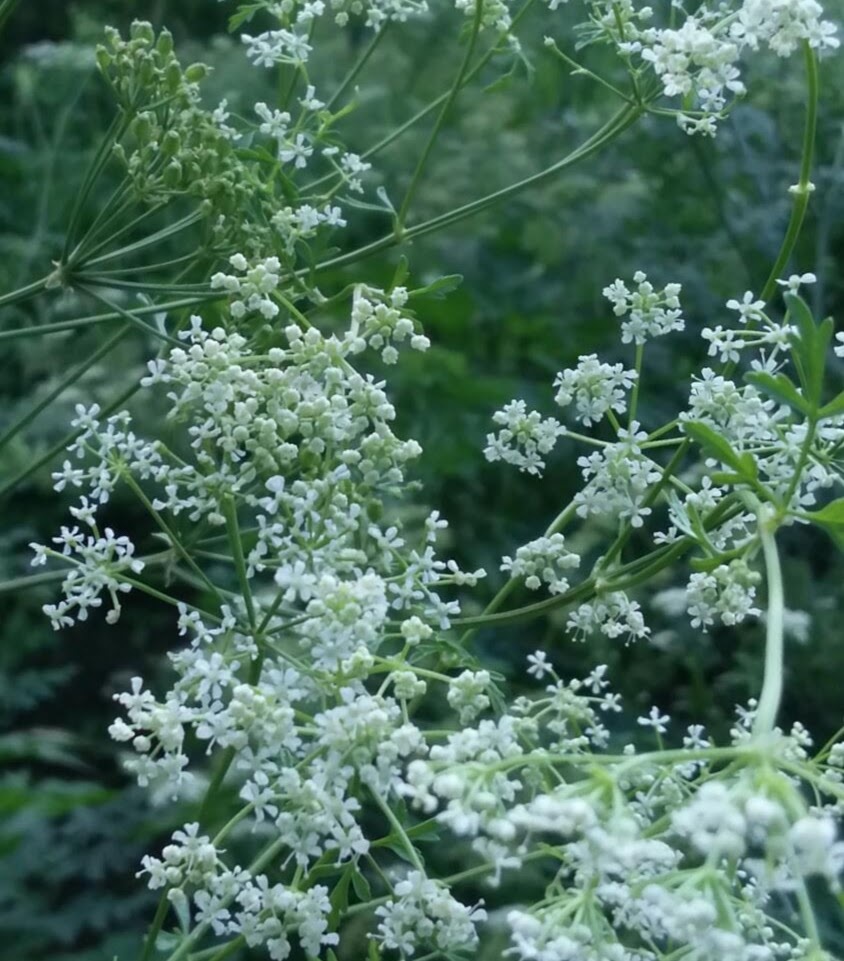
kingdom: Plantae
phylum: Tracheophyta
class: Magnoliopsida
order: Apiales
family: Apiaceae
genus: Conium
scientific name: Conium maculatum
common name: Hemlock
